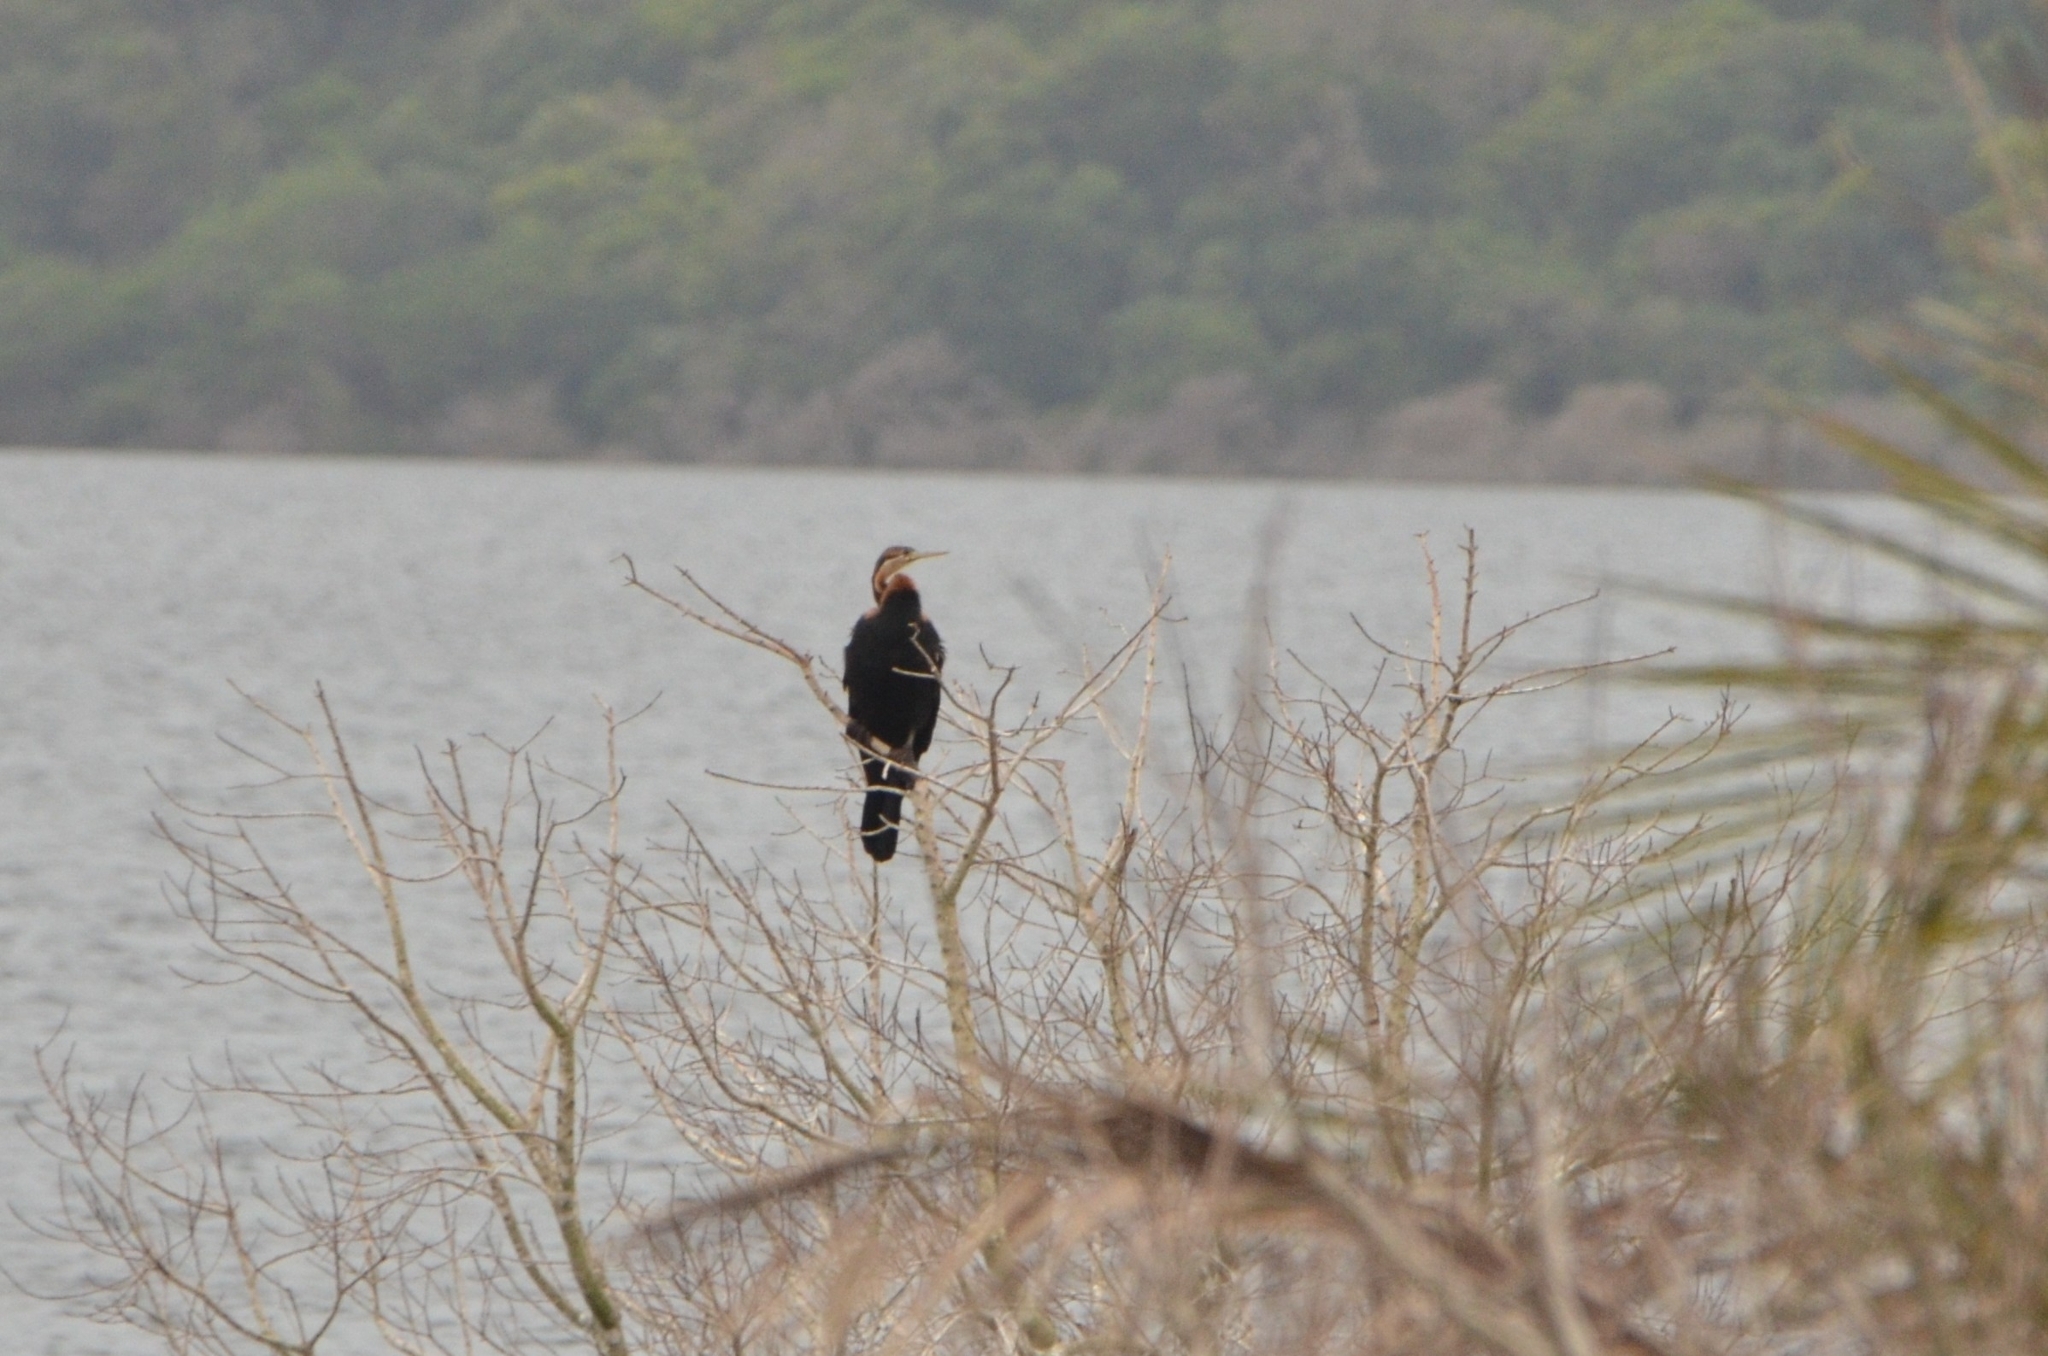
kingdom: Animalia
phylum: Chordata
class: Aves
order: Suliformes
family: Anhingidae
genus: Anhinga
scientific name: Anhinga rufa
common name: African darter
